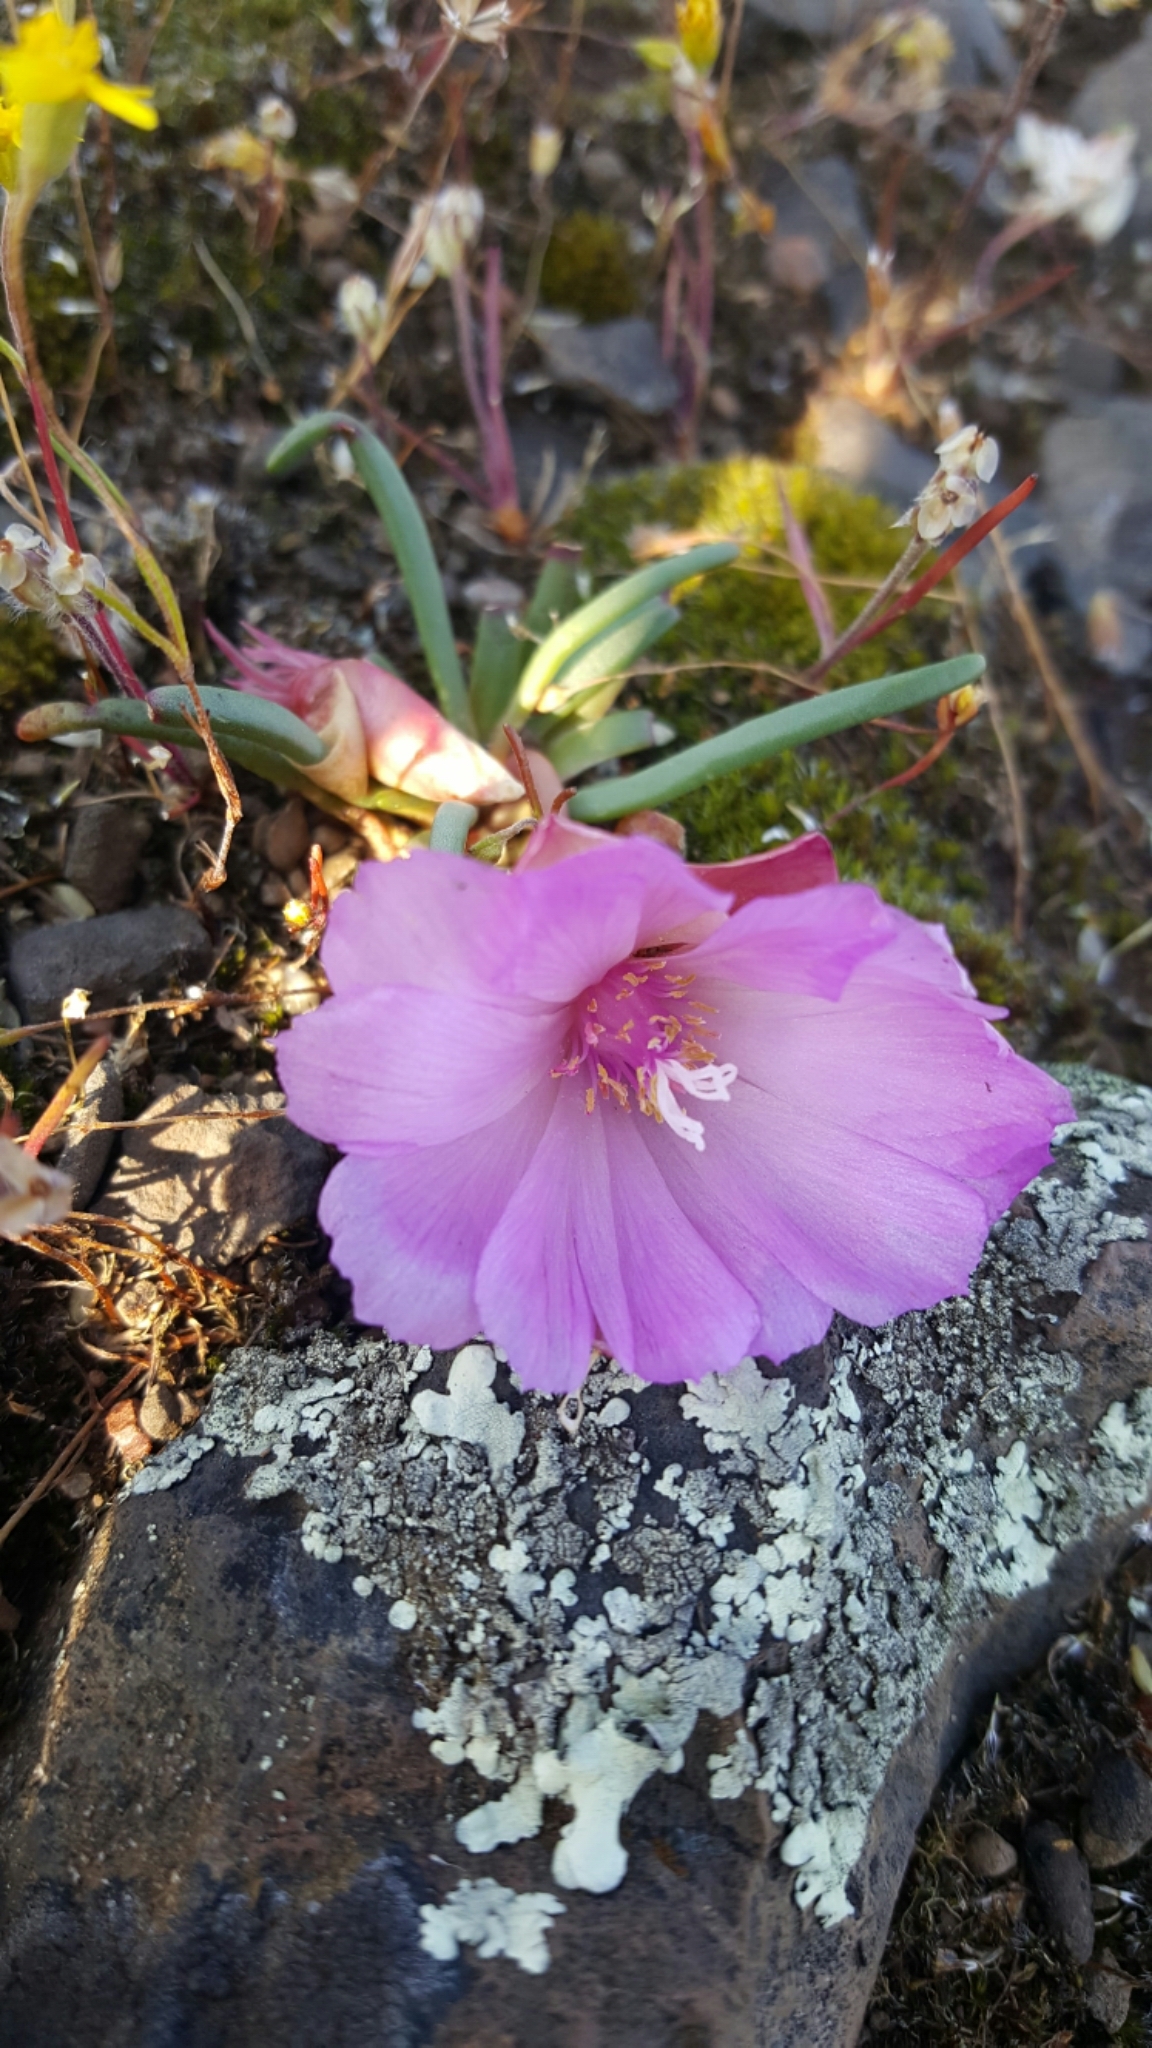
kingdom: Plantae
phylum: Tracheophyta
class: Magnoliopsida
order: Caryophyllales
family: Montiaceae
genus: Lewisia
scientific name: Lewisia rediviva
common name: Bitter-root
